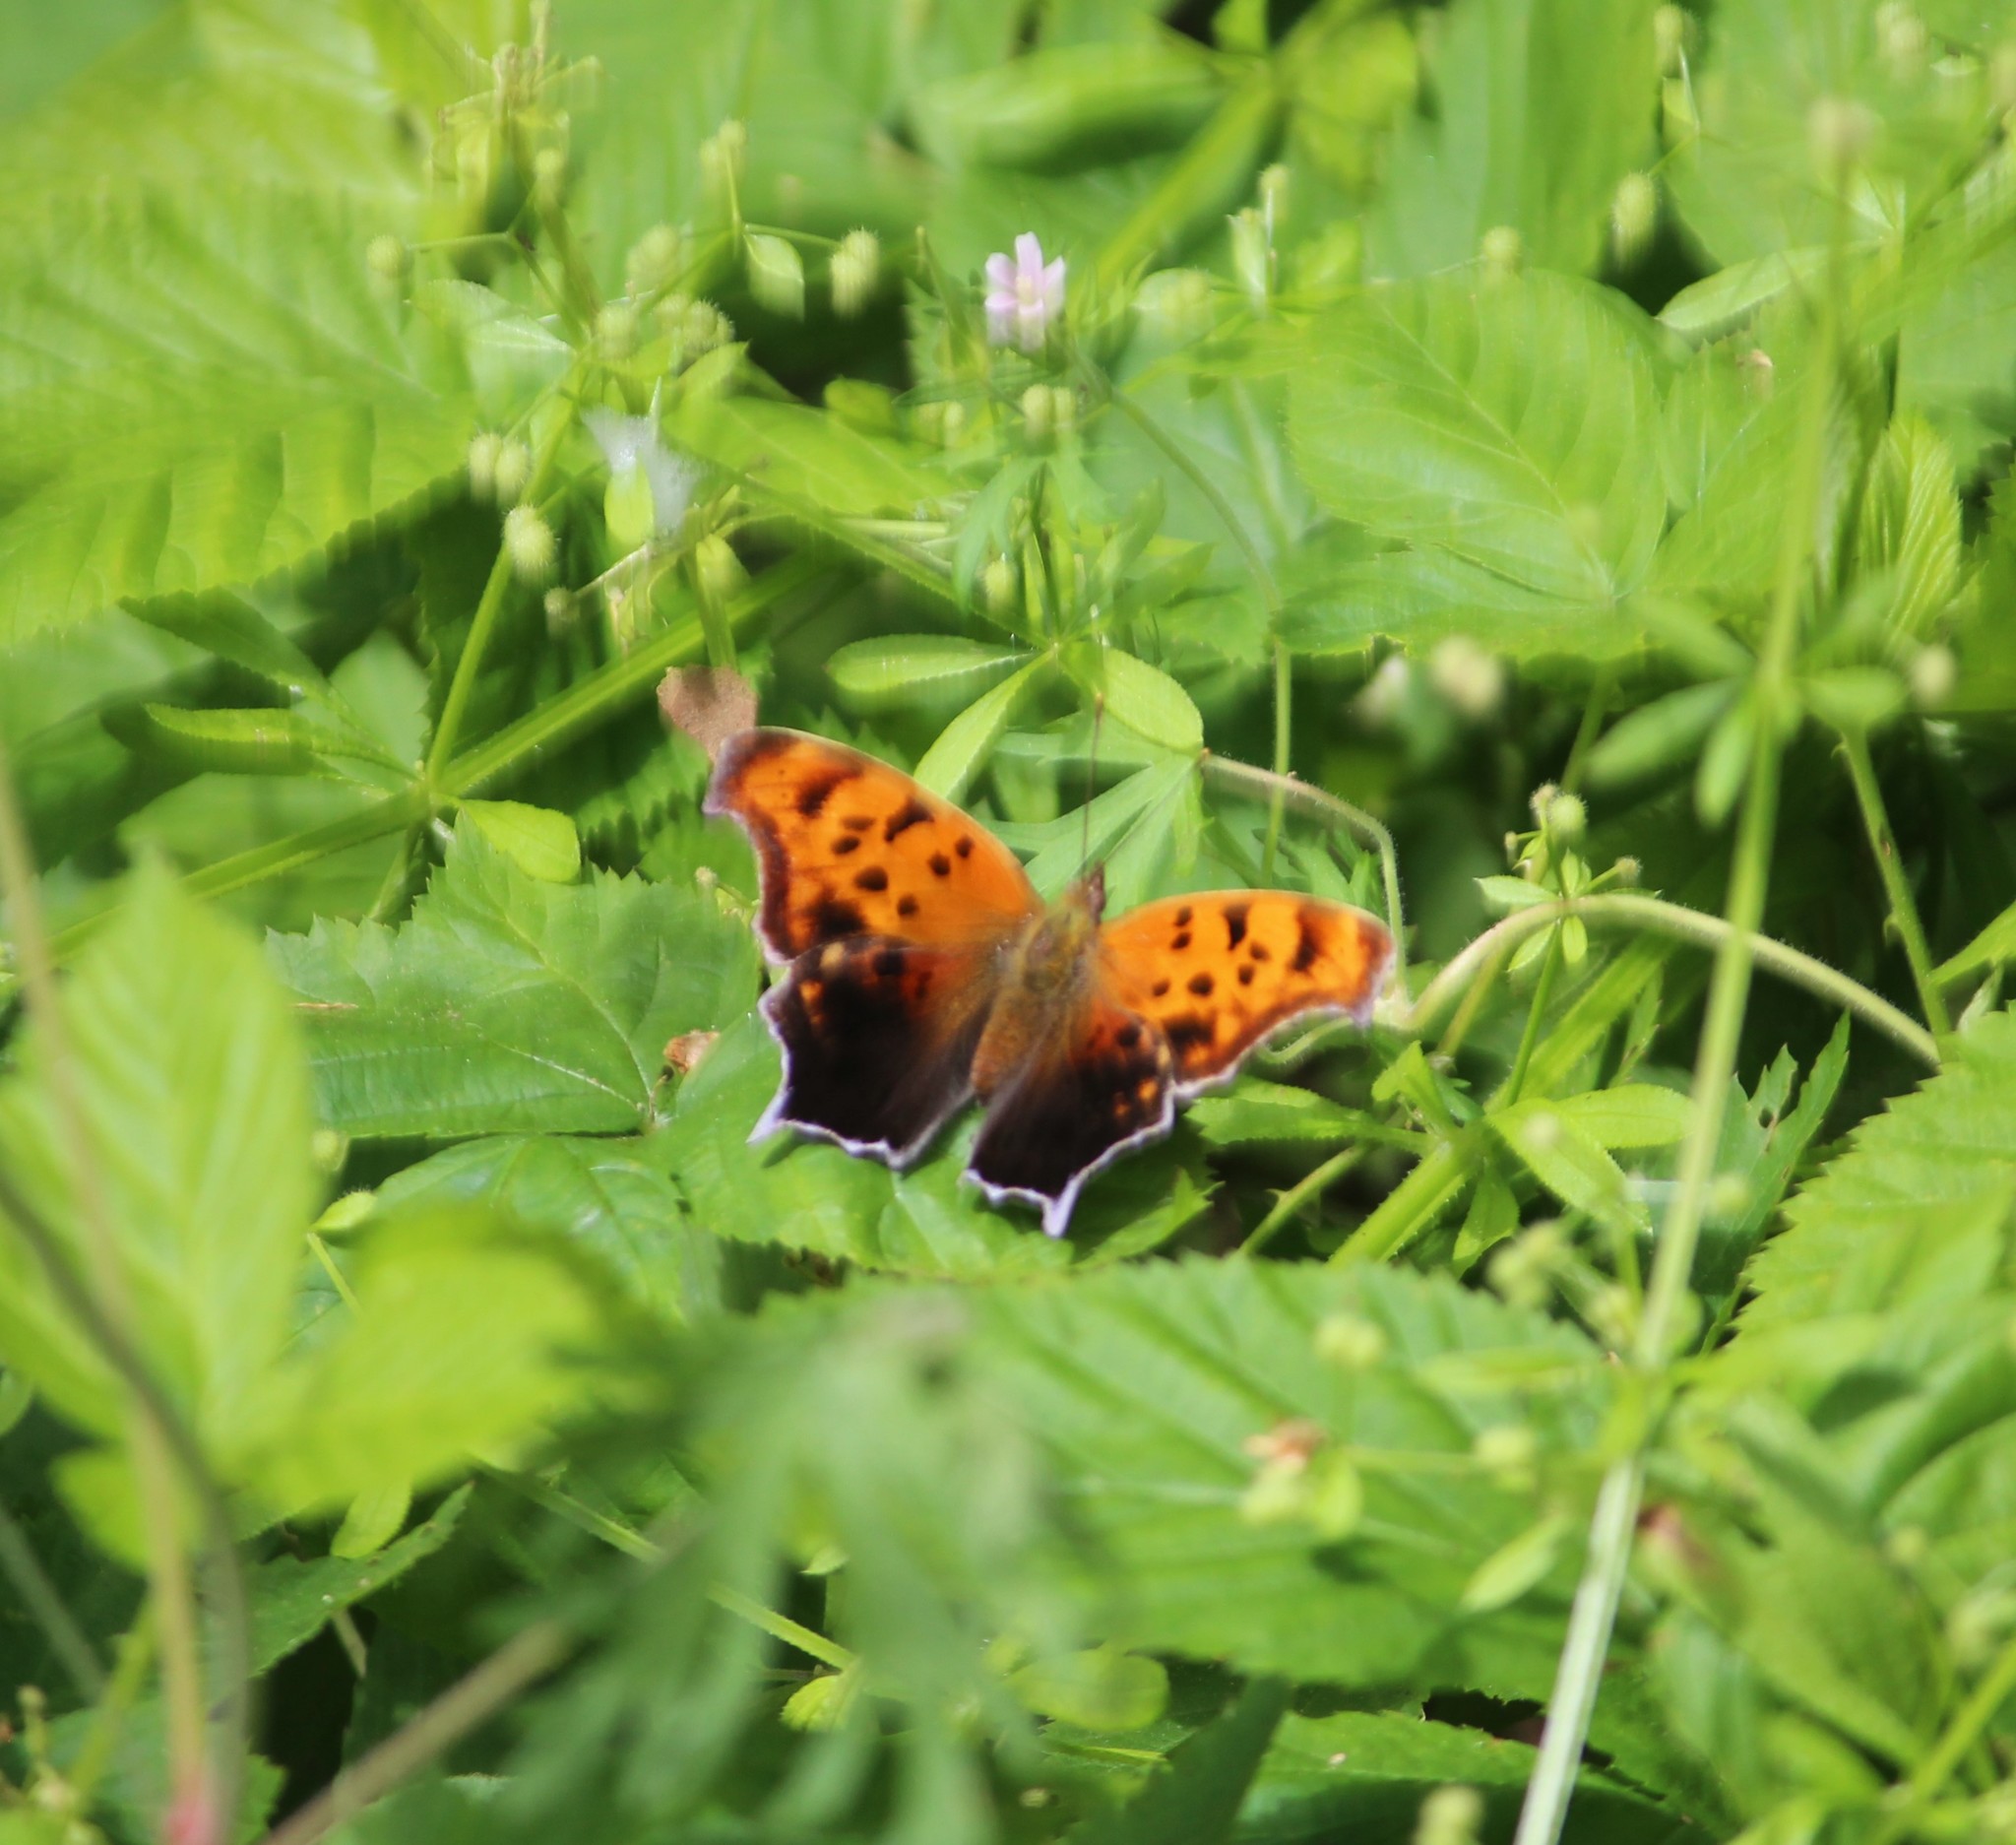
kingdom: Animalia
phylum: Arthropoda
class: Insecta
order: Lepidoptera
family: Nymphalidae
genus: Polygonia
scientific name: Polygonia interrogationis
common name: Question mark
